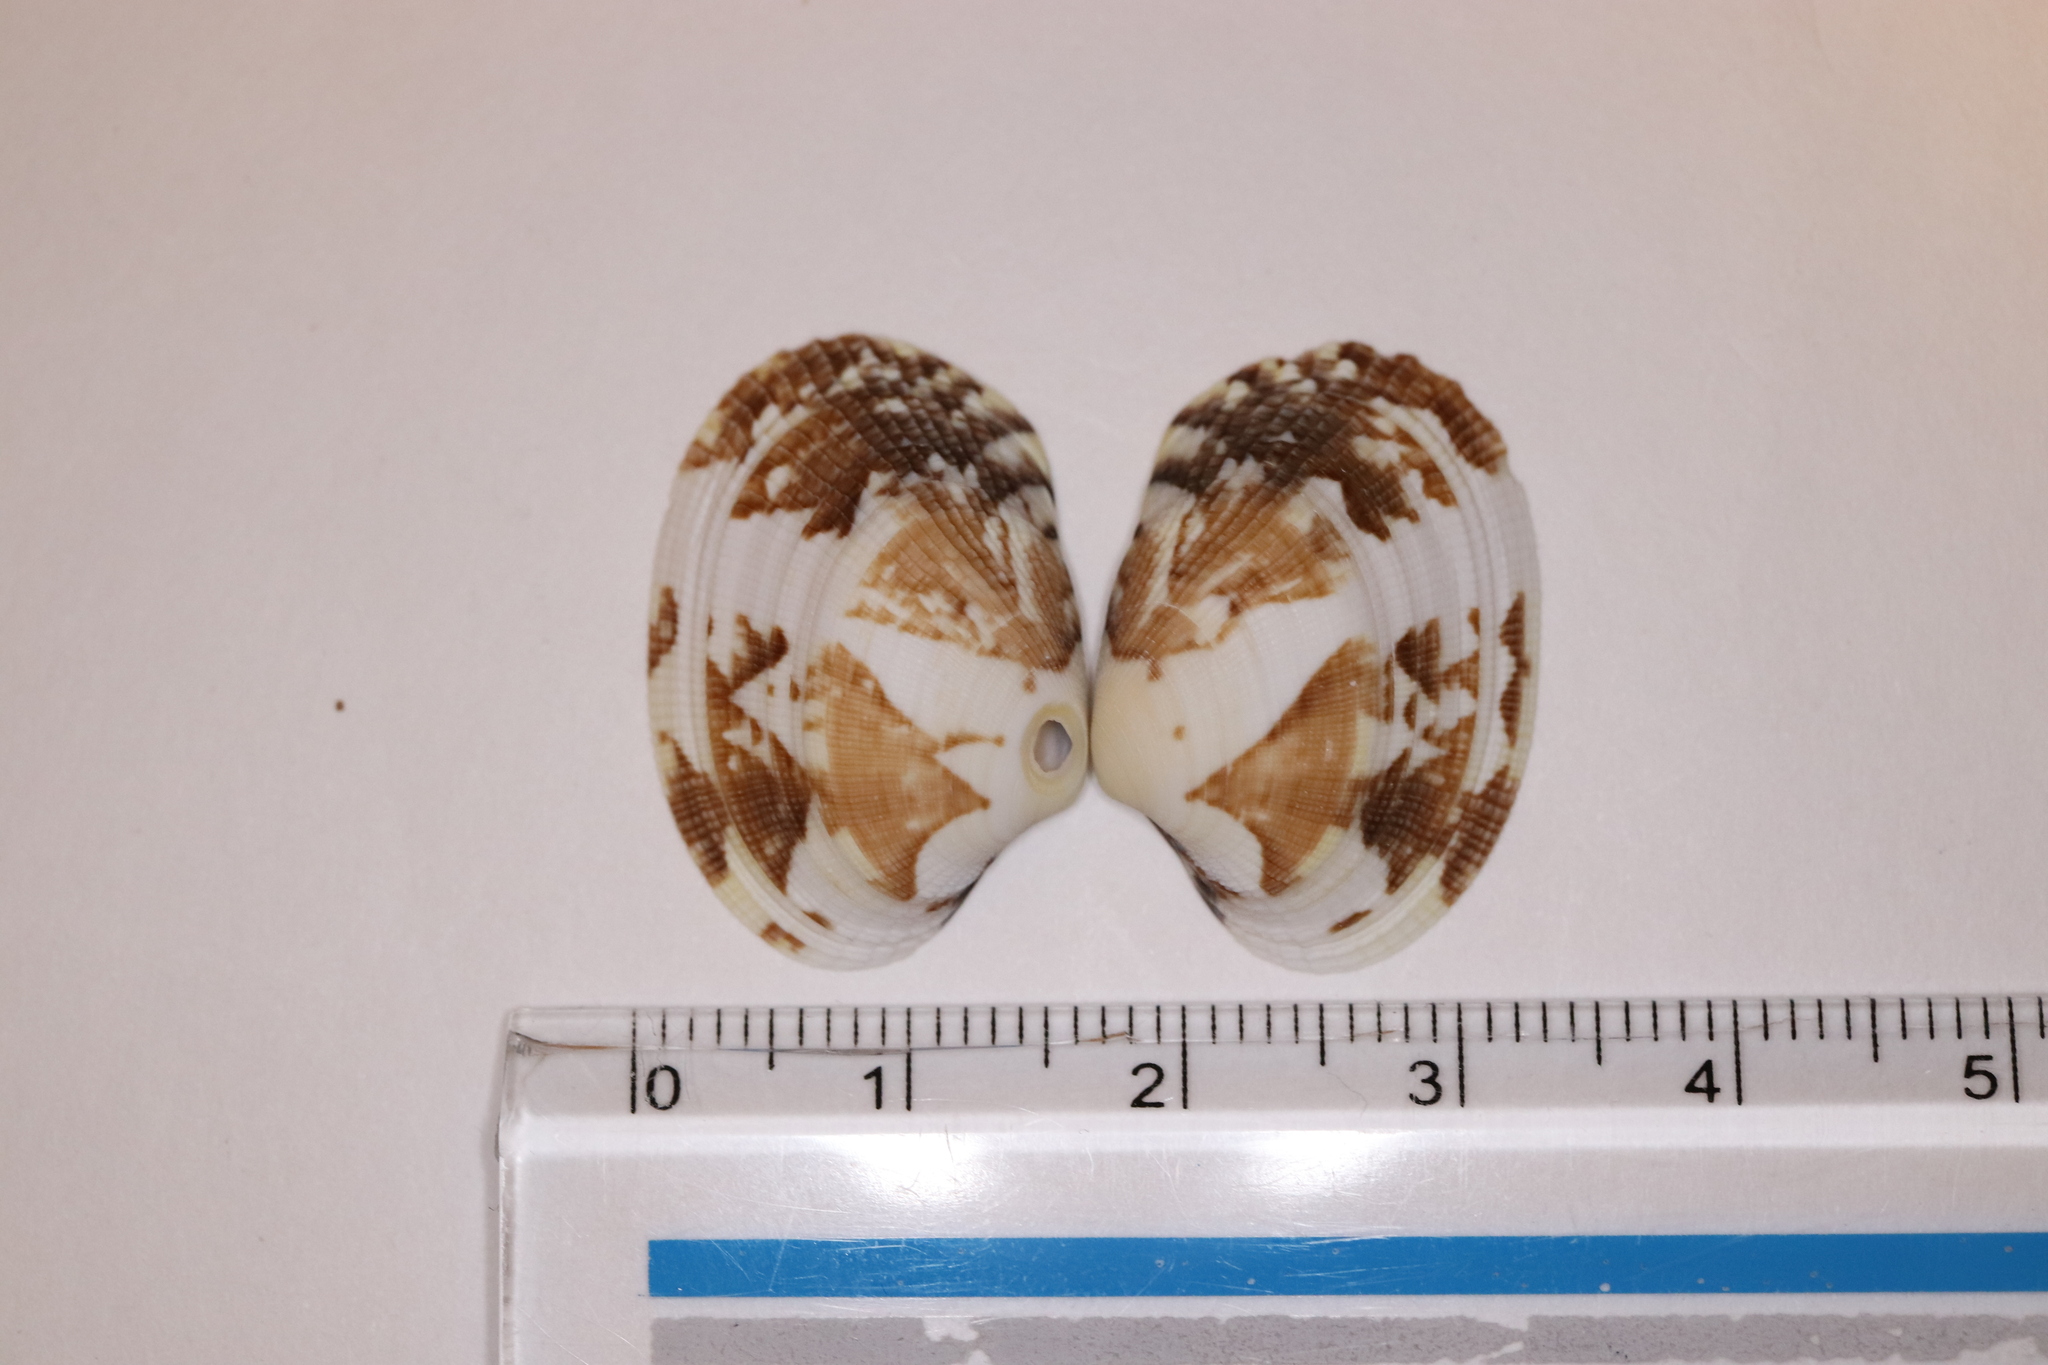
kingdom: Animalia
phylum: Mollusca
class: Bivalvia
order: Venerida
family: Veneridae
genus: Ruditapes
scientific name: Ruditapes philippinarum
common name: Manila clam
